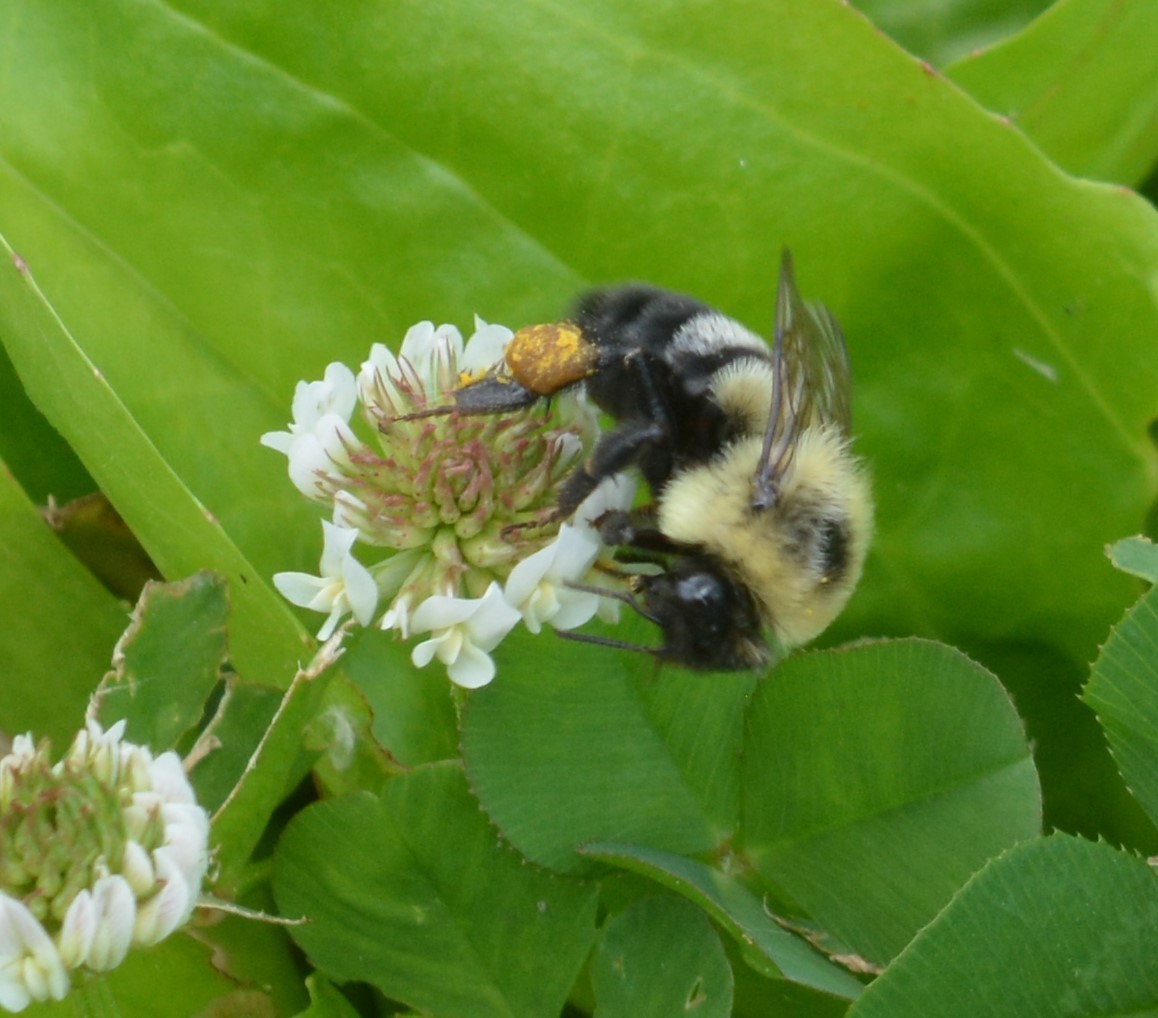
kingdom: Animalia
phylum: Arthropoda
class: Insecta
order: Hymenoptera
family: Apidae
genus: Bombus
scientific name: Bombus impatiens
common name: Common eastern bumble bee
